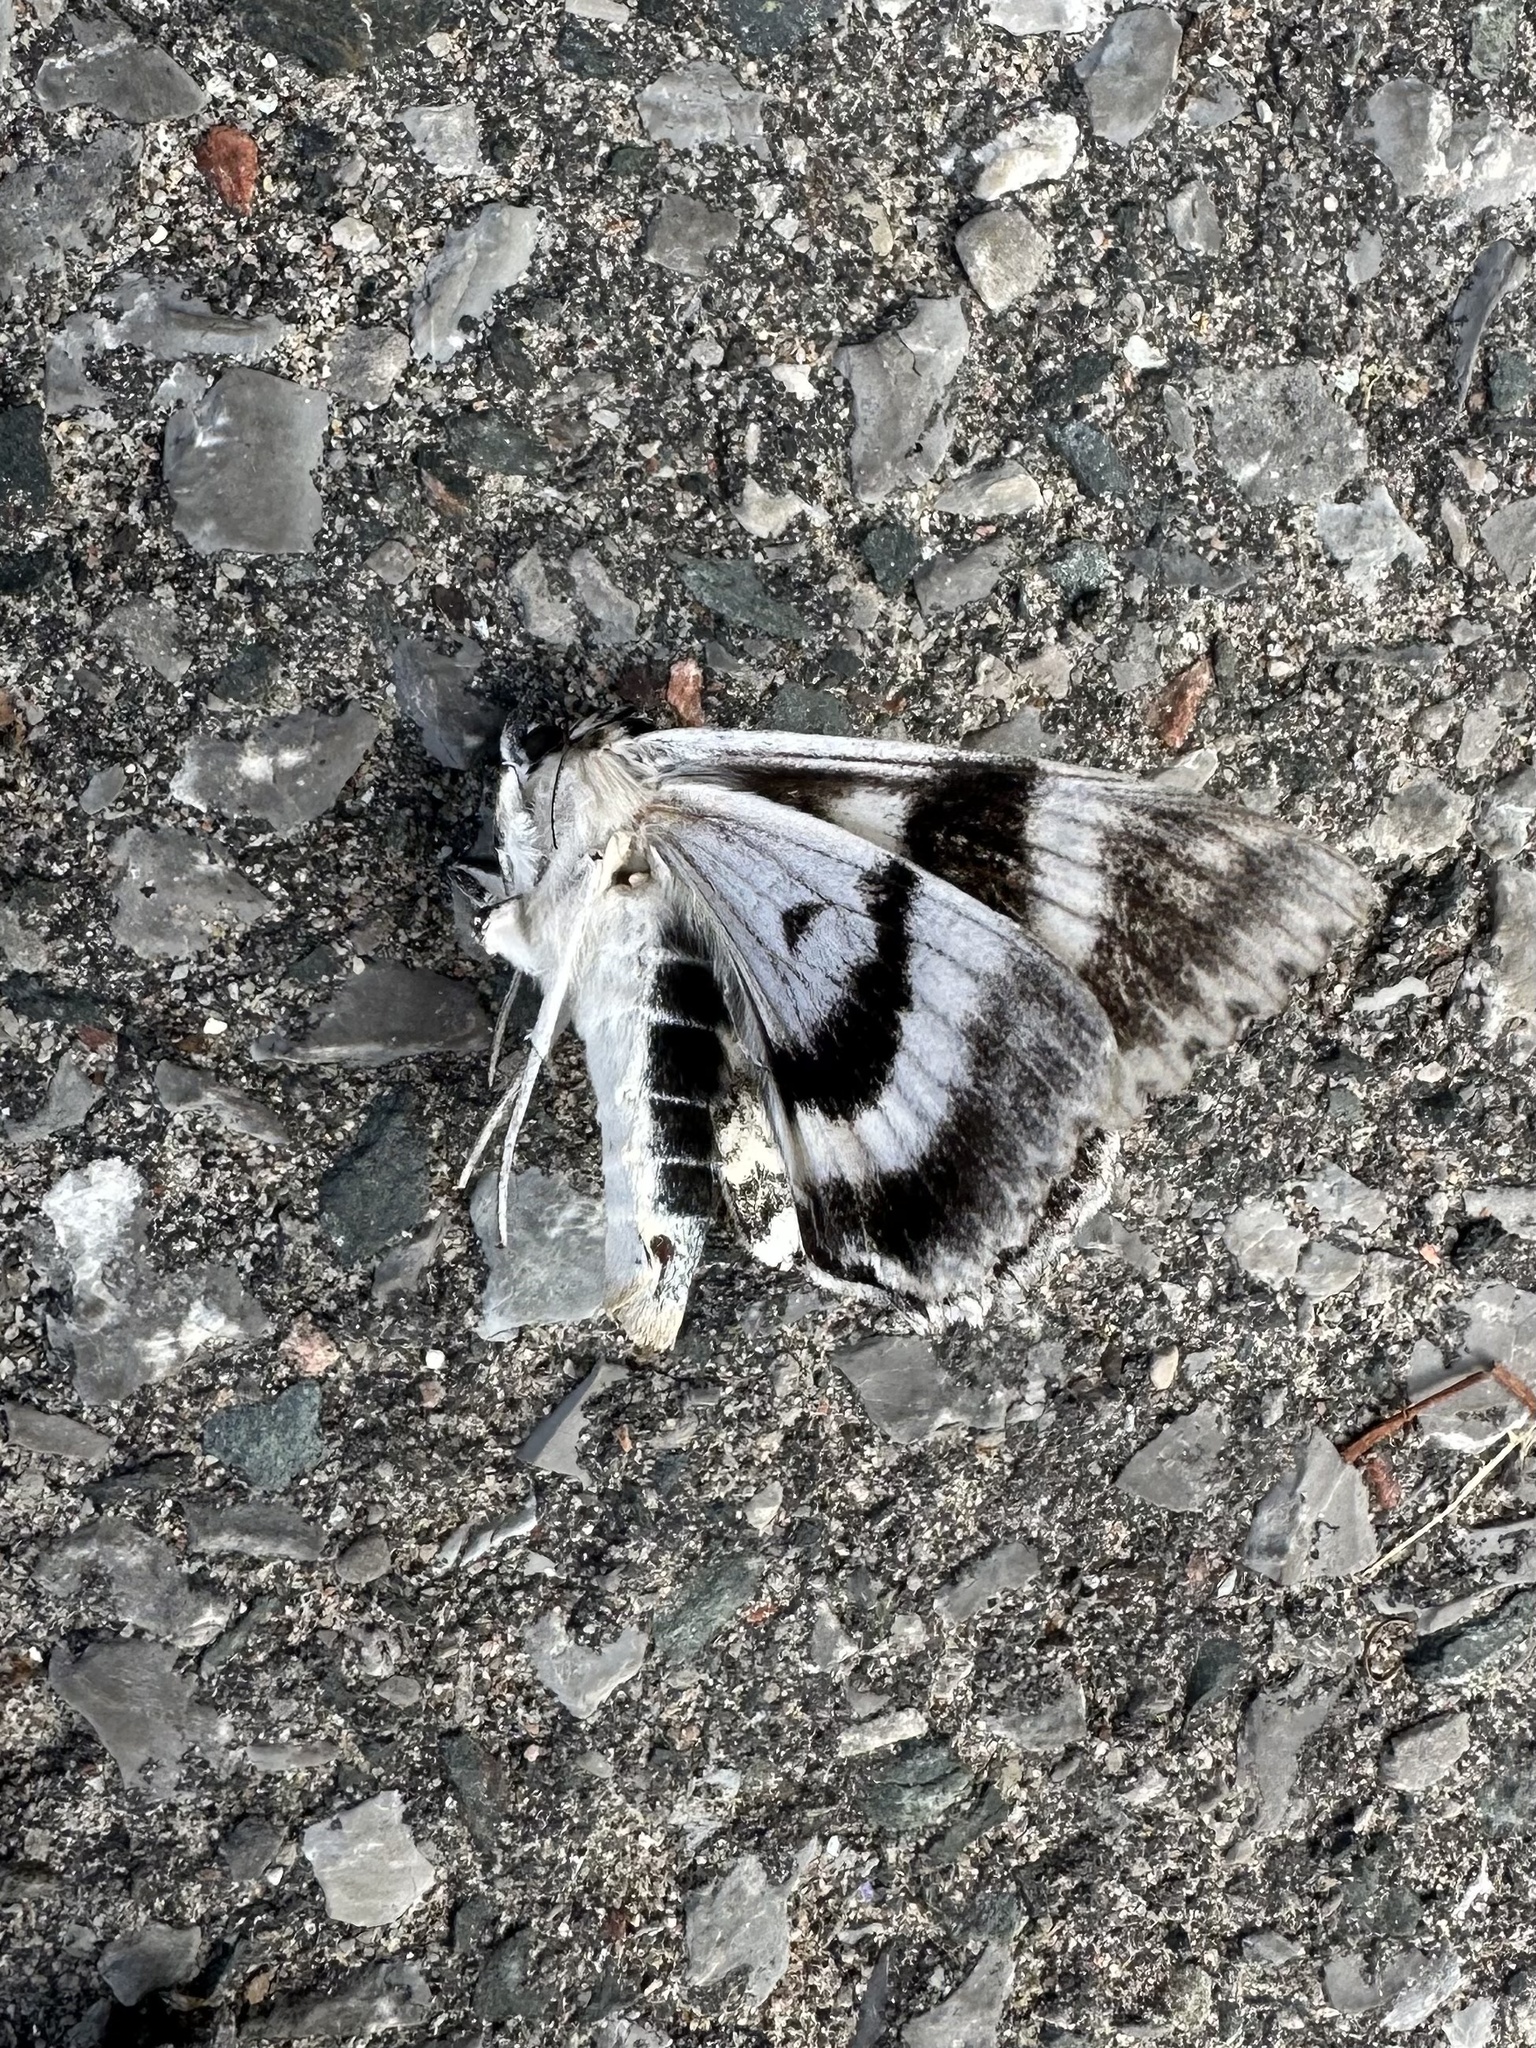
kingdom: Animalia
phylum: Arthropoda
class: Insecta
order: Lepidoptera
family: Erebidae
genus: Catocala
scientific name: Catocala relicta
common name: White underwing
